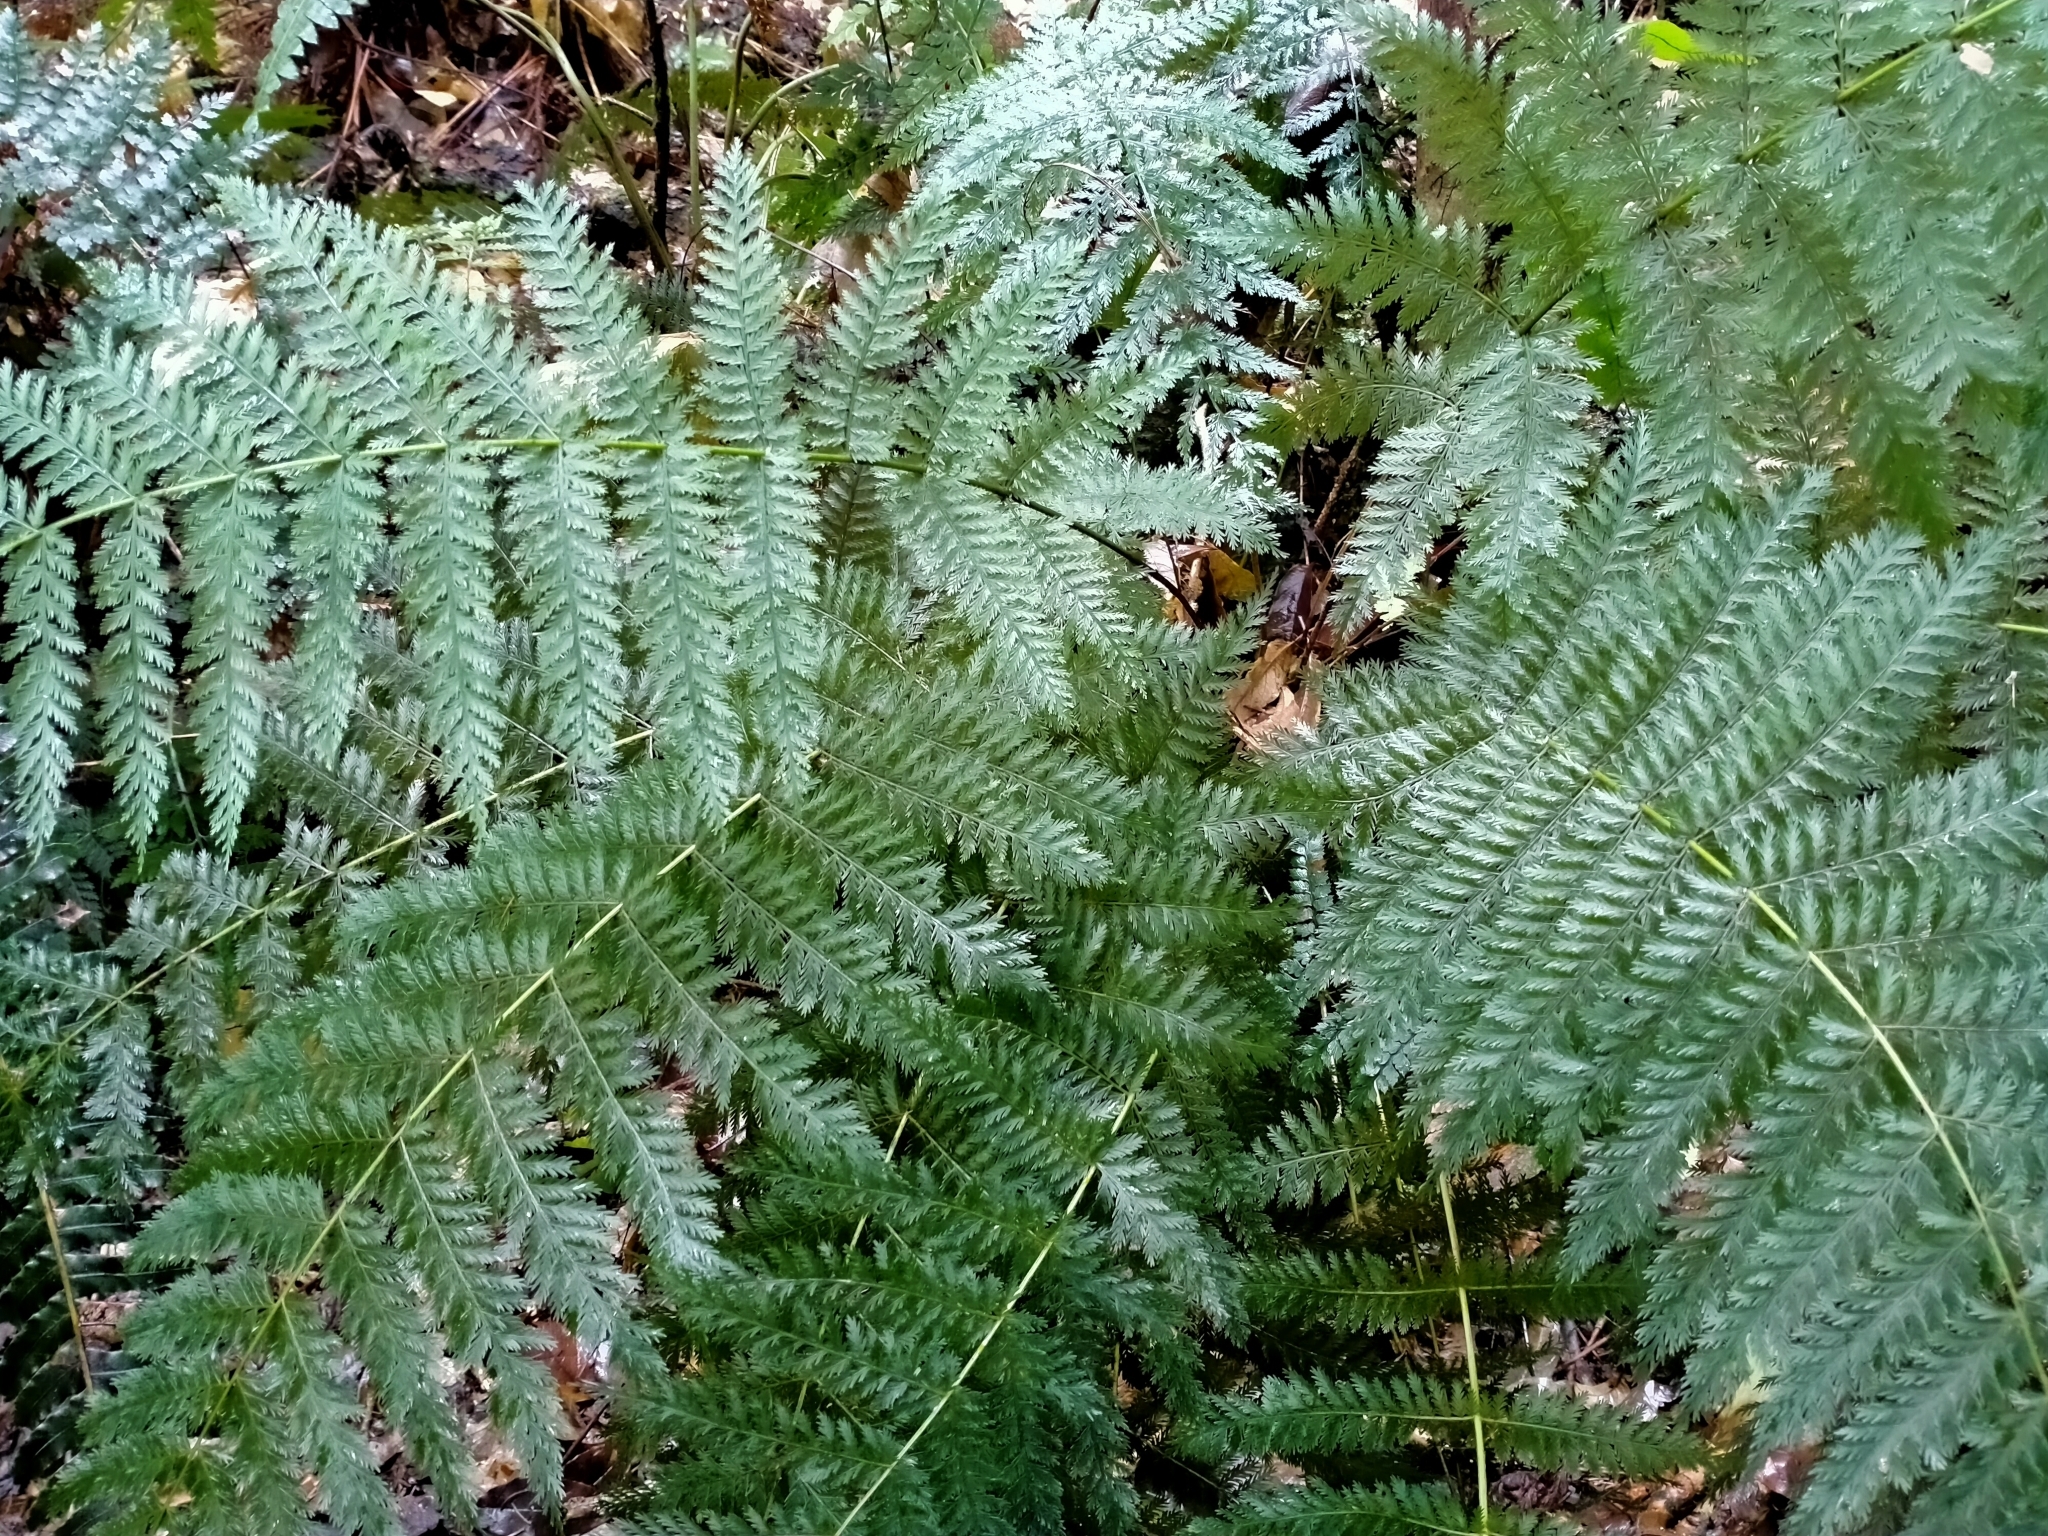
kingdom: Plantae
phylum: Tracheophyta
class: Polypodiopsida
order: Osmundales
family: Osmundaceae
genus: Leptopteris
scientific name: Leptopteris hymenophylloides
